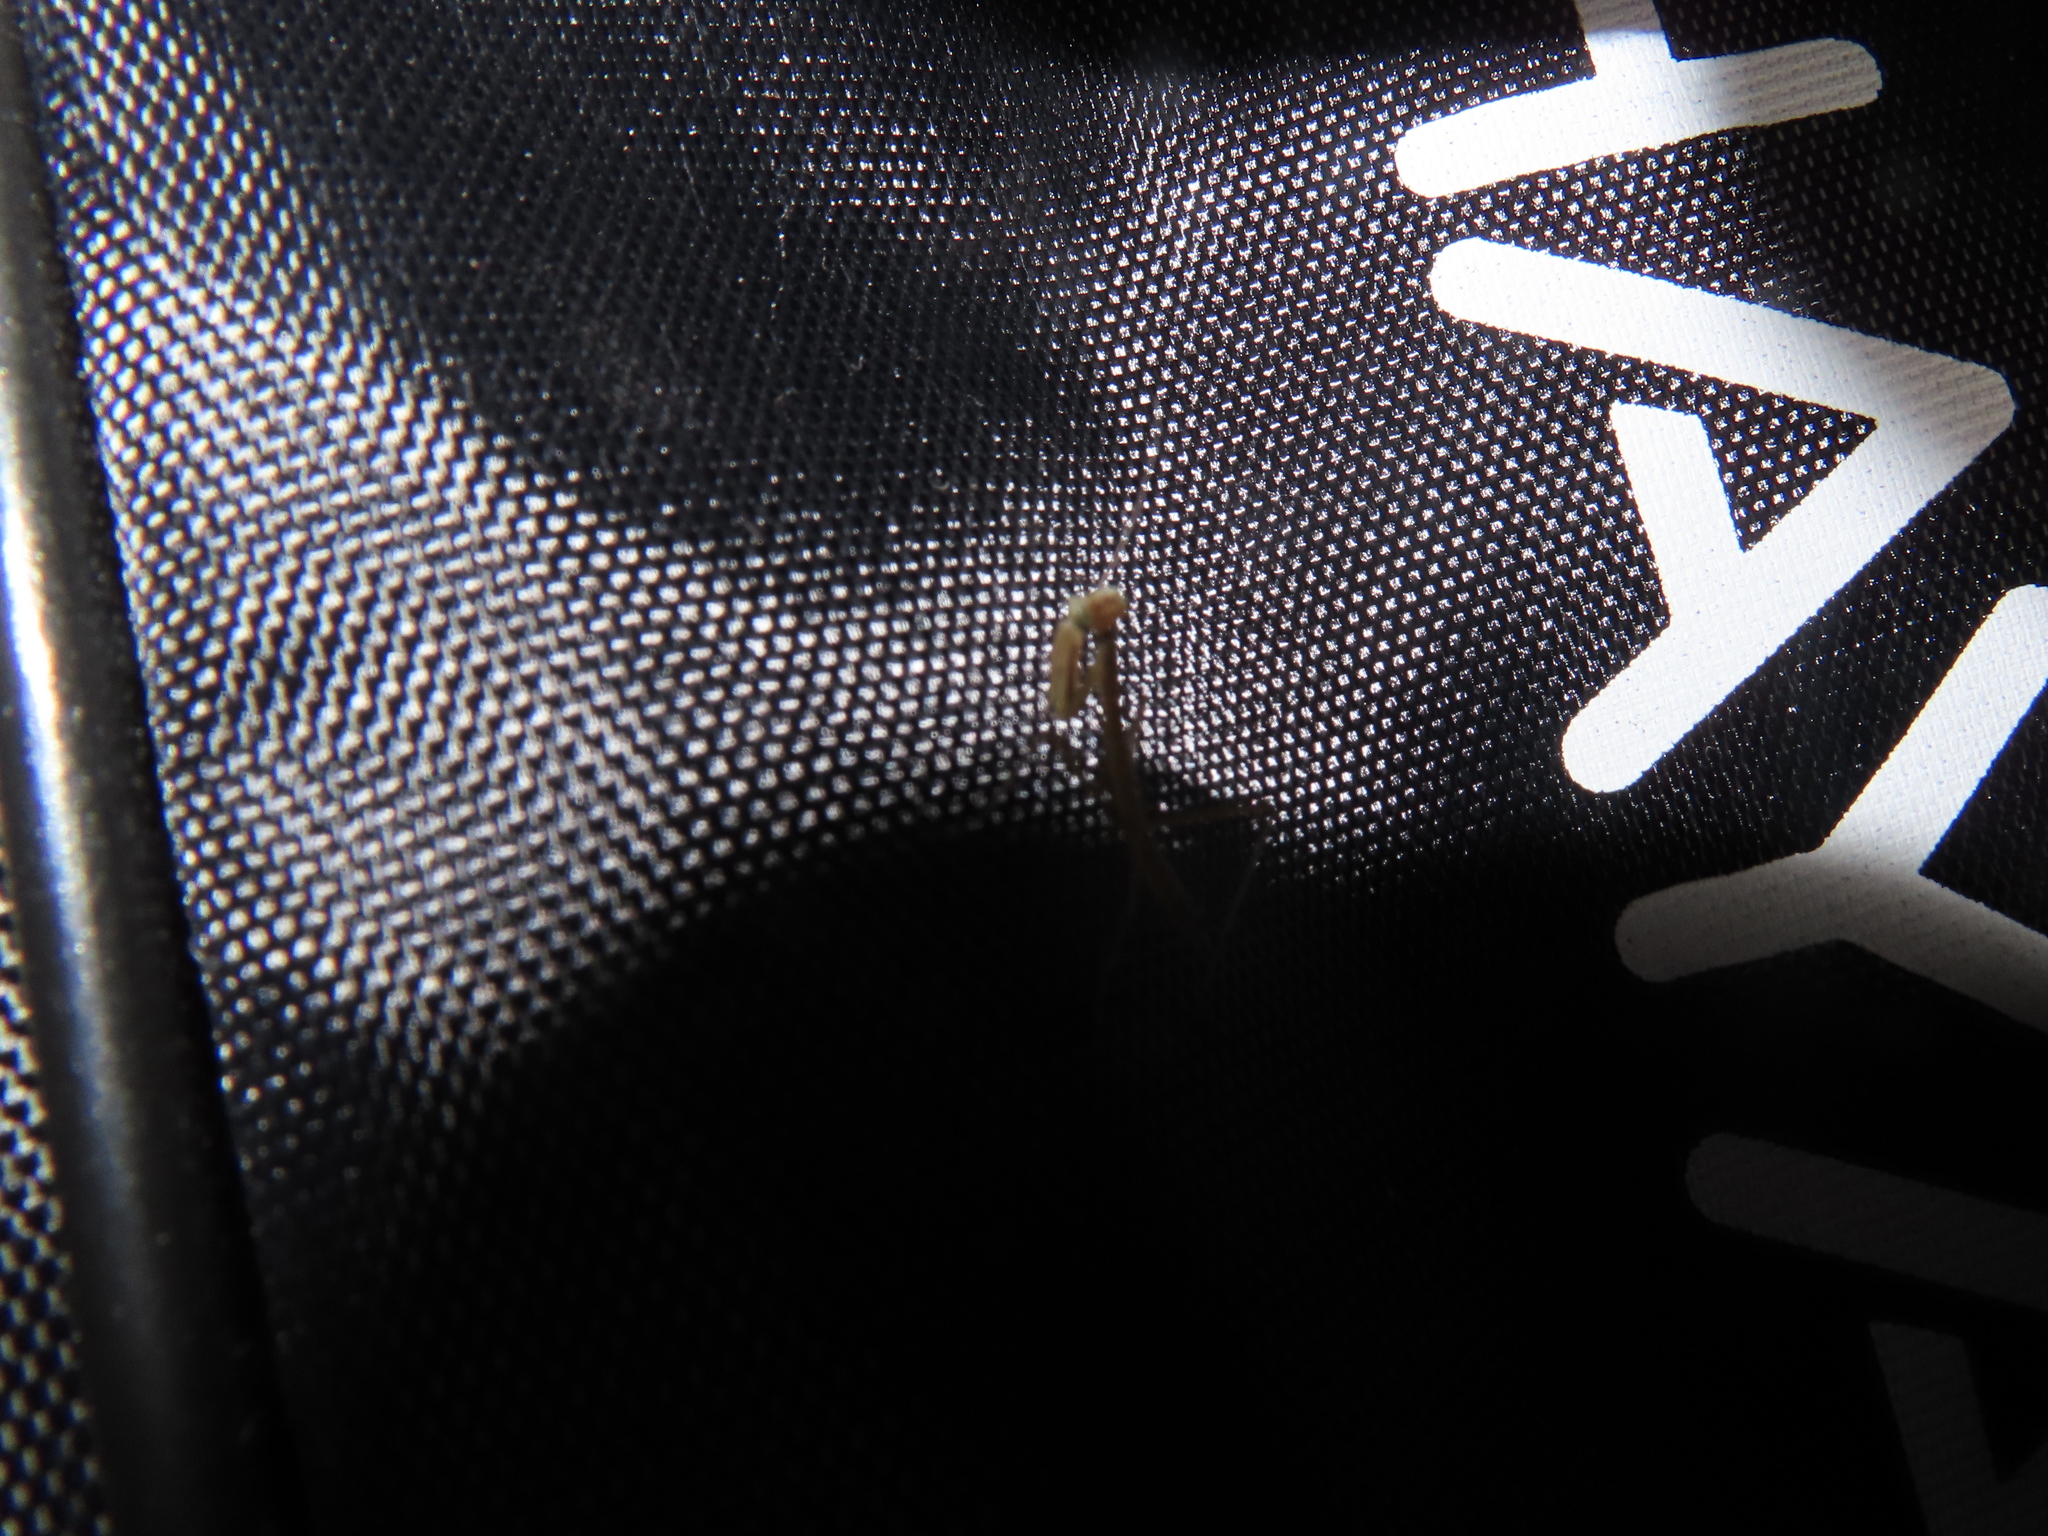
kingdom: Animalia
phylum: Arthropoda
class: Insecta
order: Mantodea
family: Mantidae
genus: Tenodera
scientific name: Tenodera sinensis
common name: Chinese mantis
